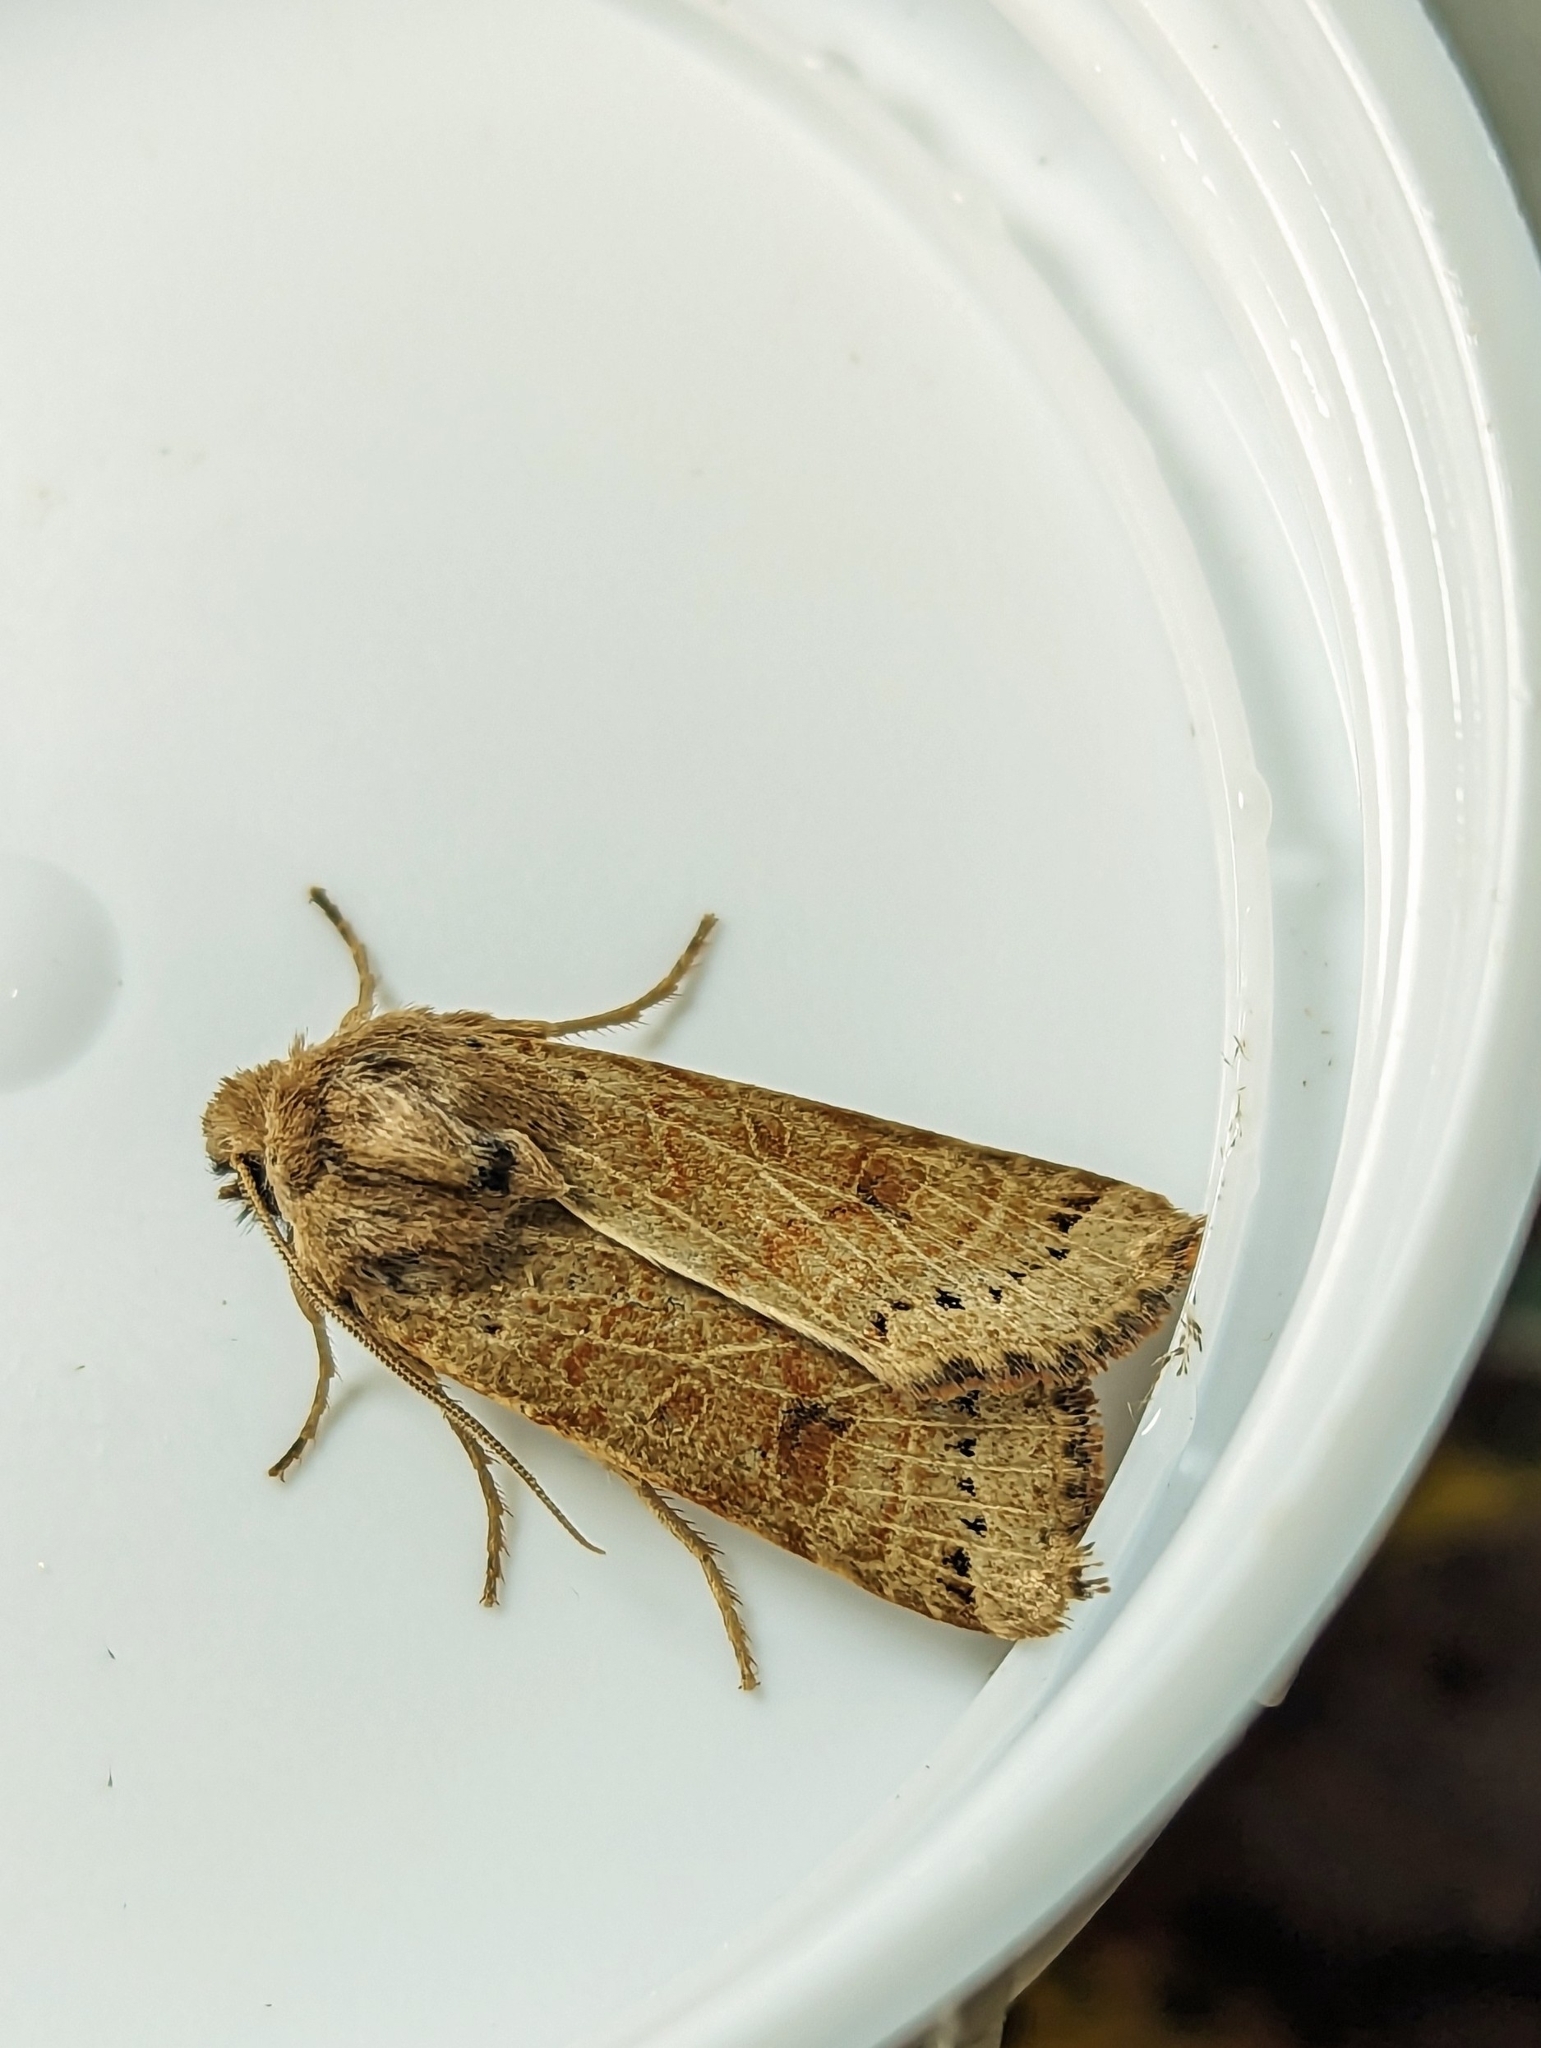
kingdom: Animalia
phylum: Arthropoda
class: Insecta
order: Lepidoptera
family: Noctuidae
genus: Agrochola
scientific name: Agrochola lunosa
